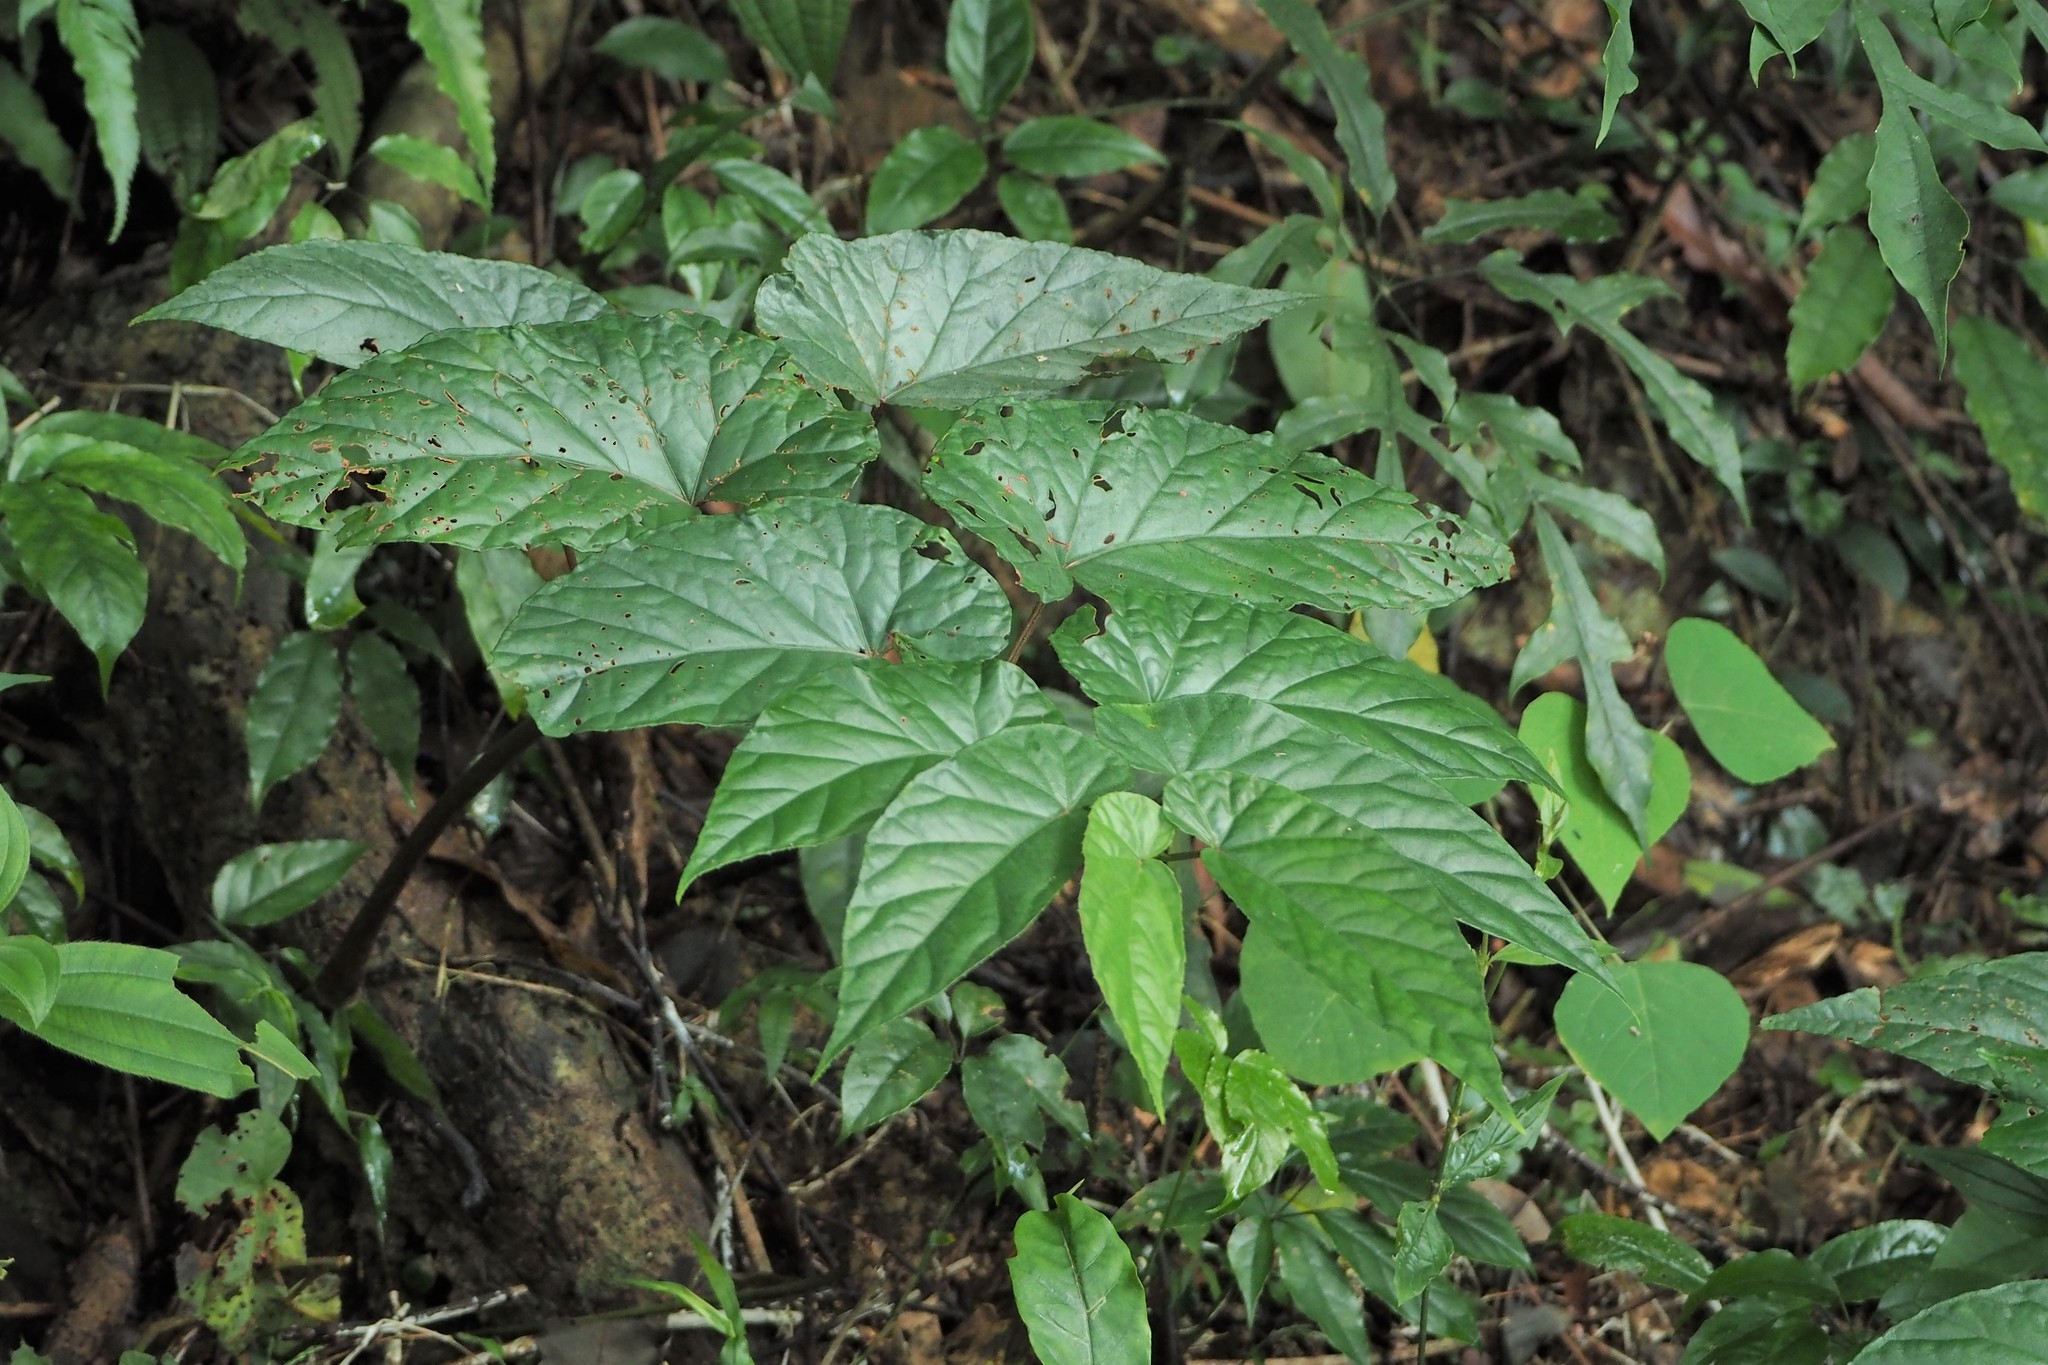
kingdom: Plantae
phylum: Tracheophyta
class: Magnoliopsida
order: Cucurbitales
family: Begoniaceae
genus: Begonia
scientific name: Begonia longifolia
